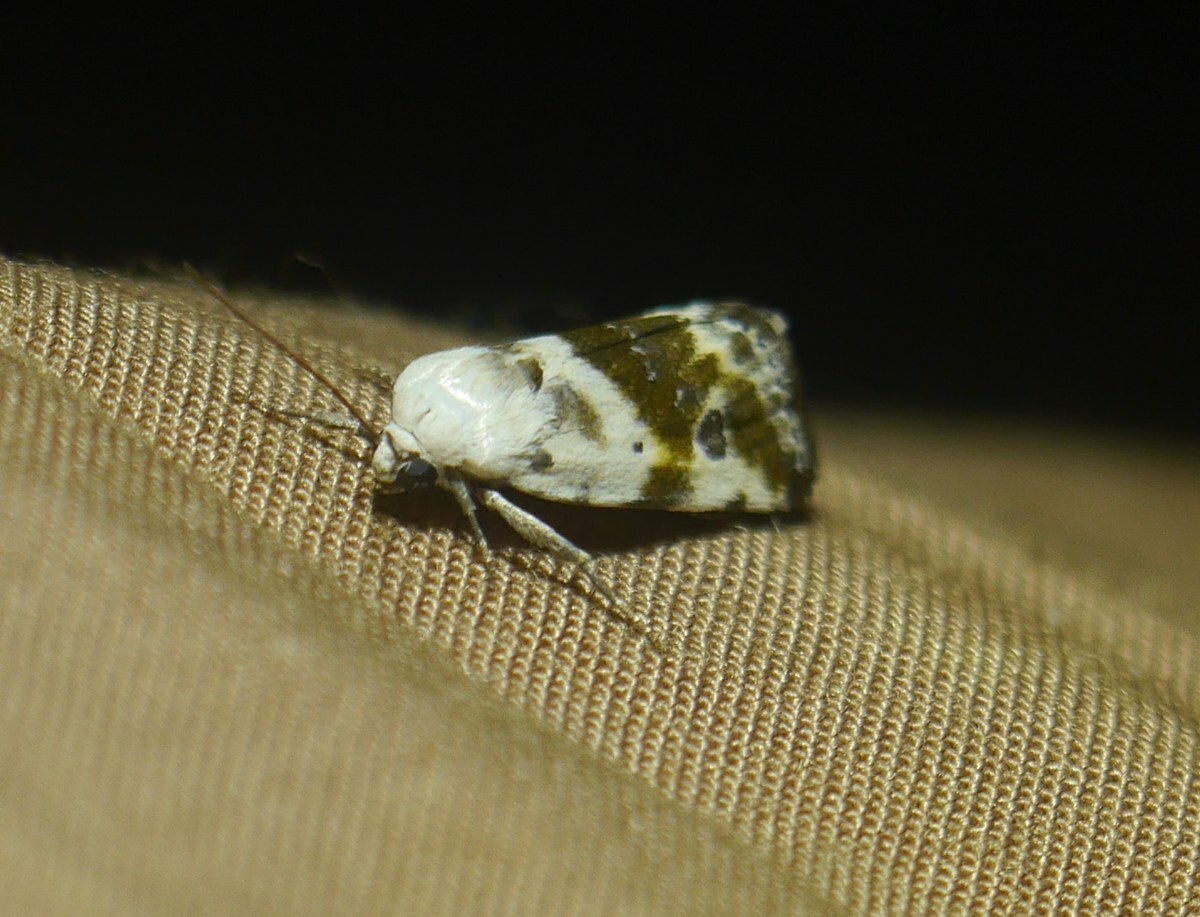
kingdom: Animalia
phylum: Arthropoda
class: Insecta
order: Lepidoptera
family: Noctuidae
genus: Acontia
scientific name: Acontia candefacta
